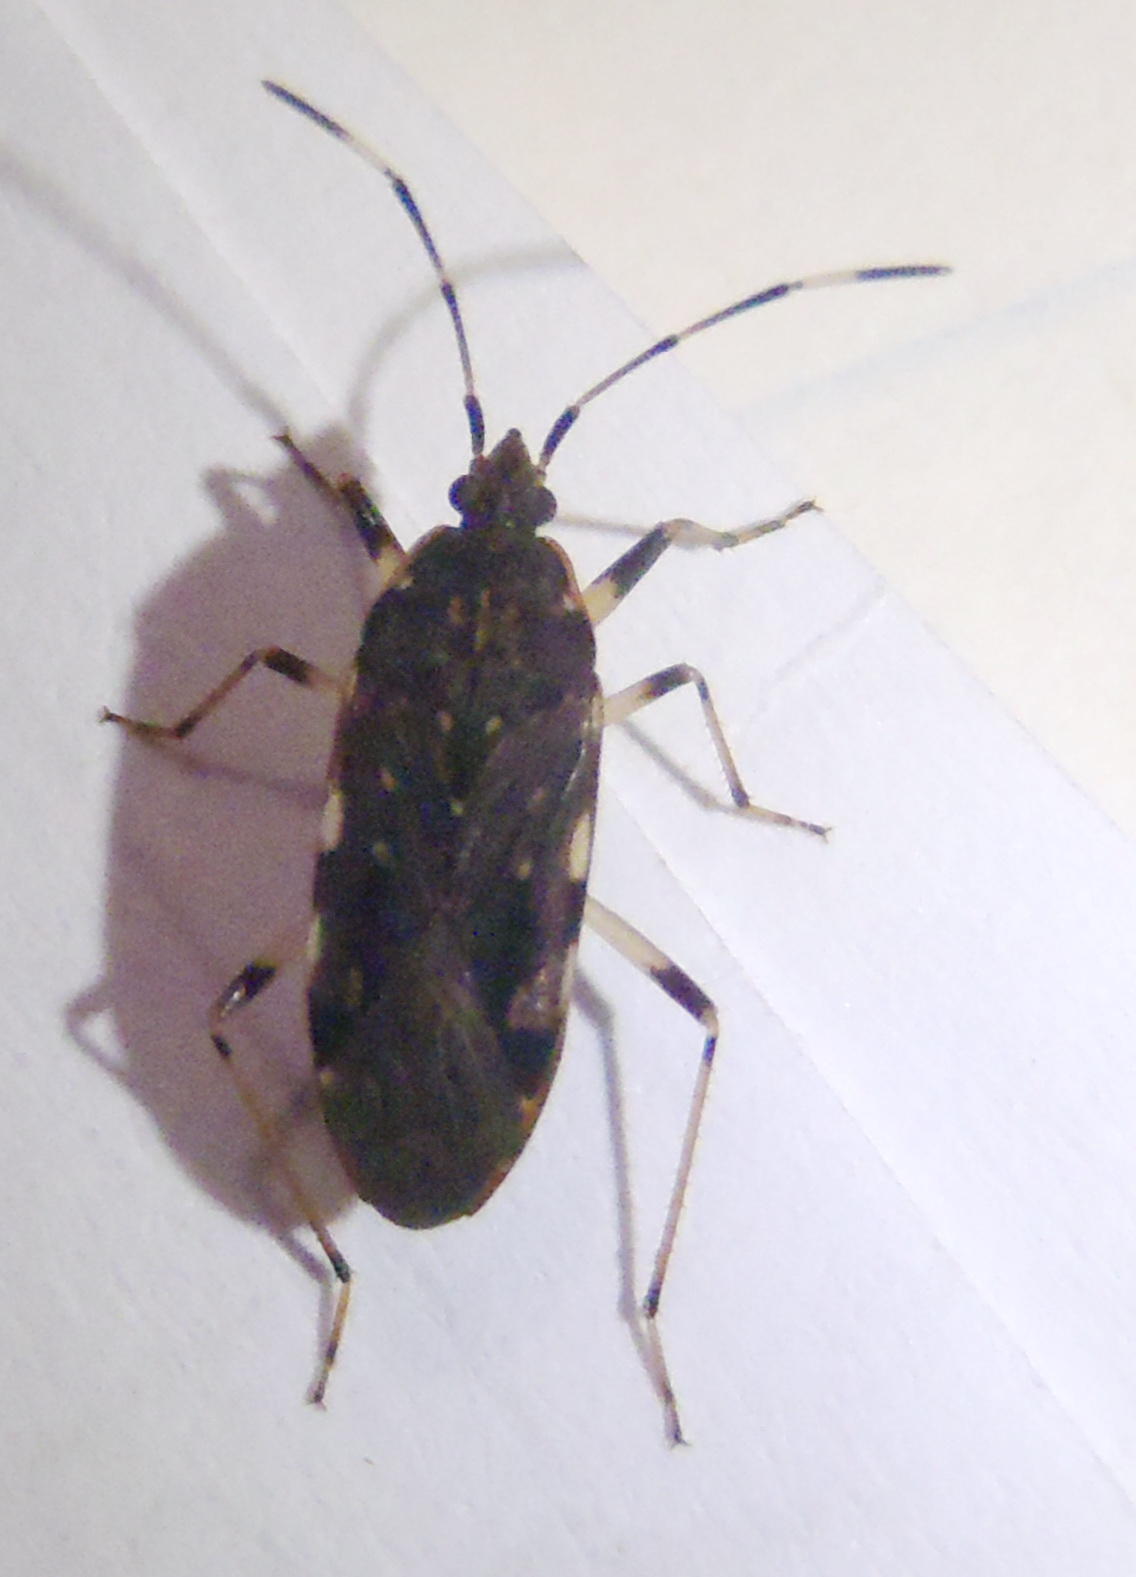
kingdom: Animalia
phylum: Arthropoda
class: Insecta
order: Hemiptera
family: Rhyparochromidae
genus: Dieuches
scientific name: Dieuches expandens
